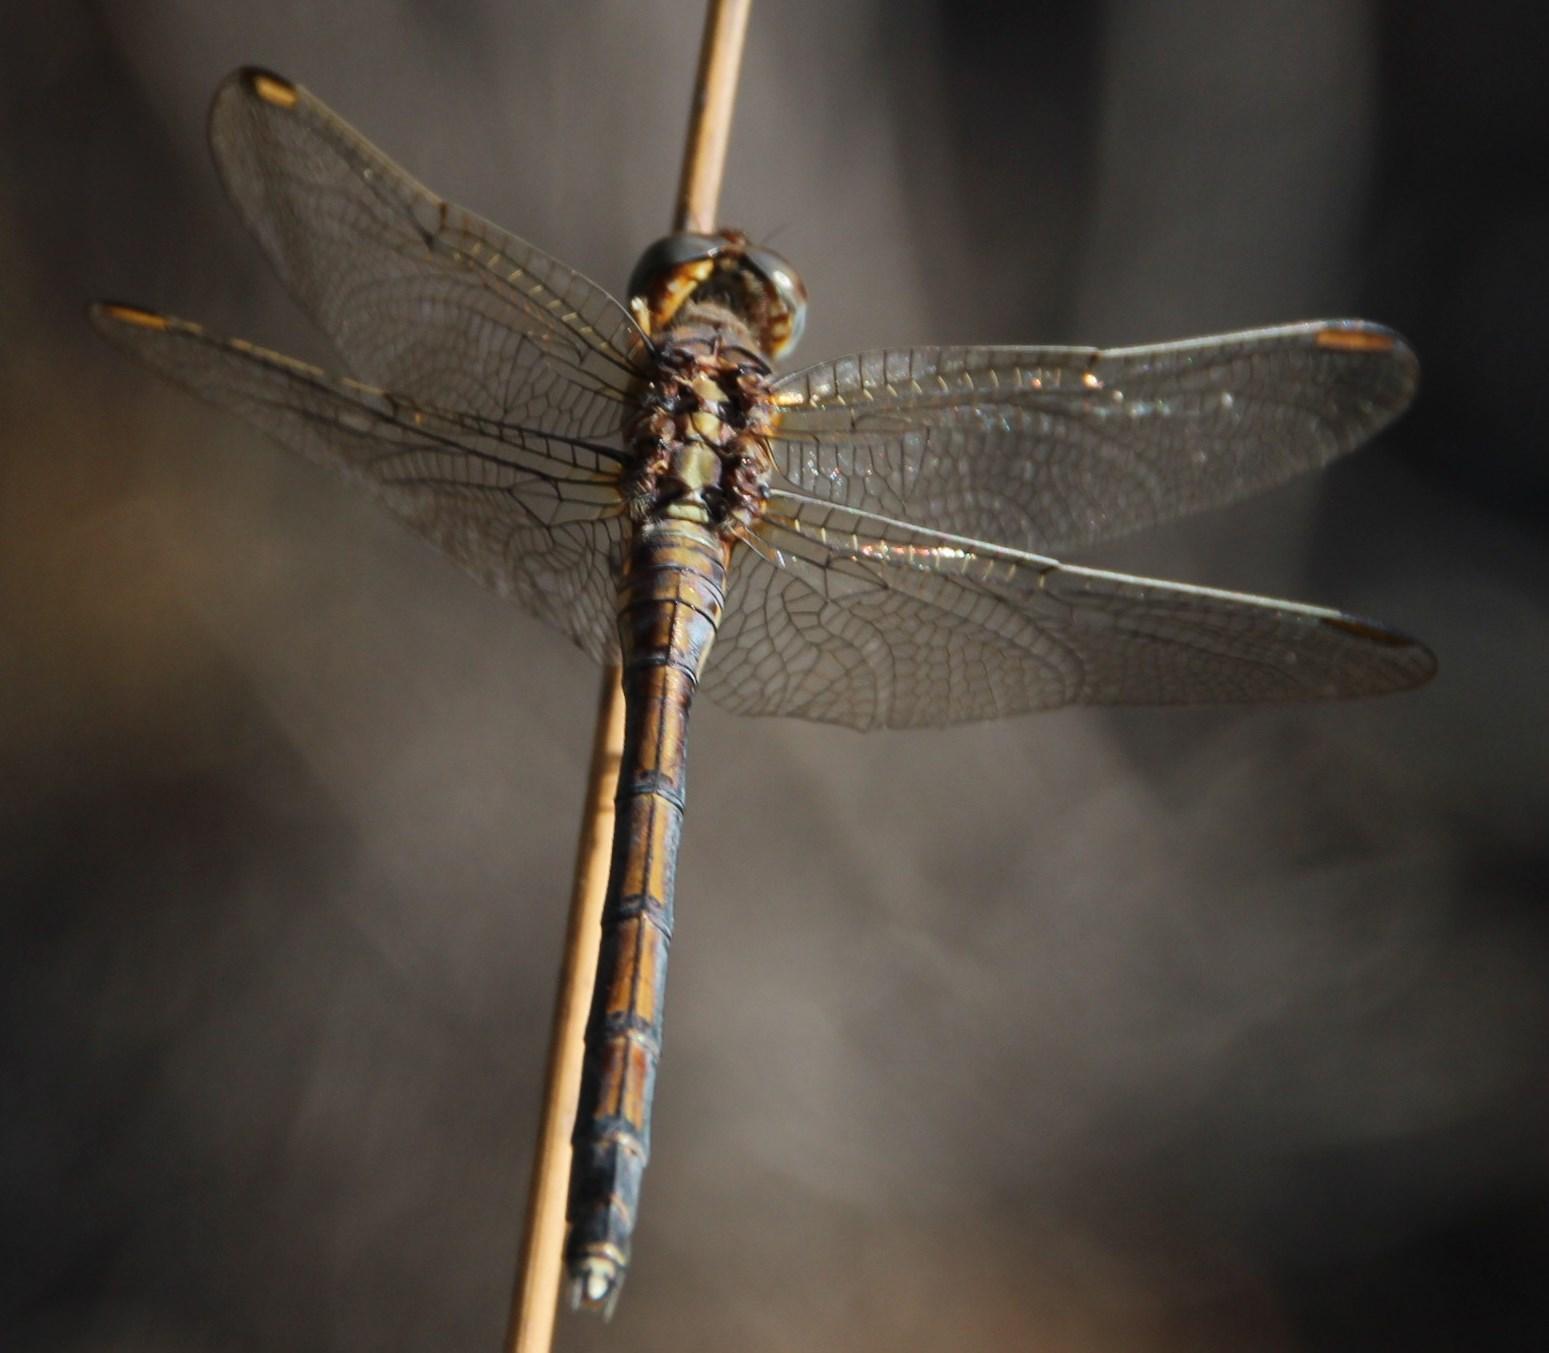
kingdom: Animalia
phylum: Arthropoda
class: Insecta
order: Odonata
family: Libellulidae
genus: Orthetrum
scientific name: Orthetrum julia
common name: Julia skimmer
